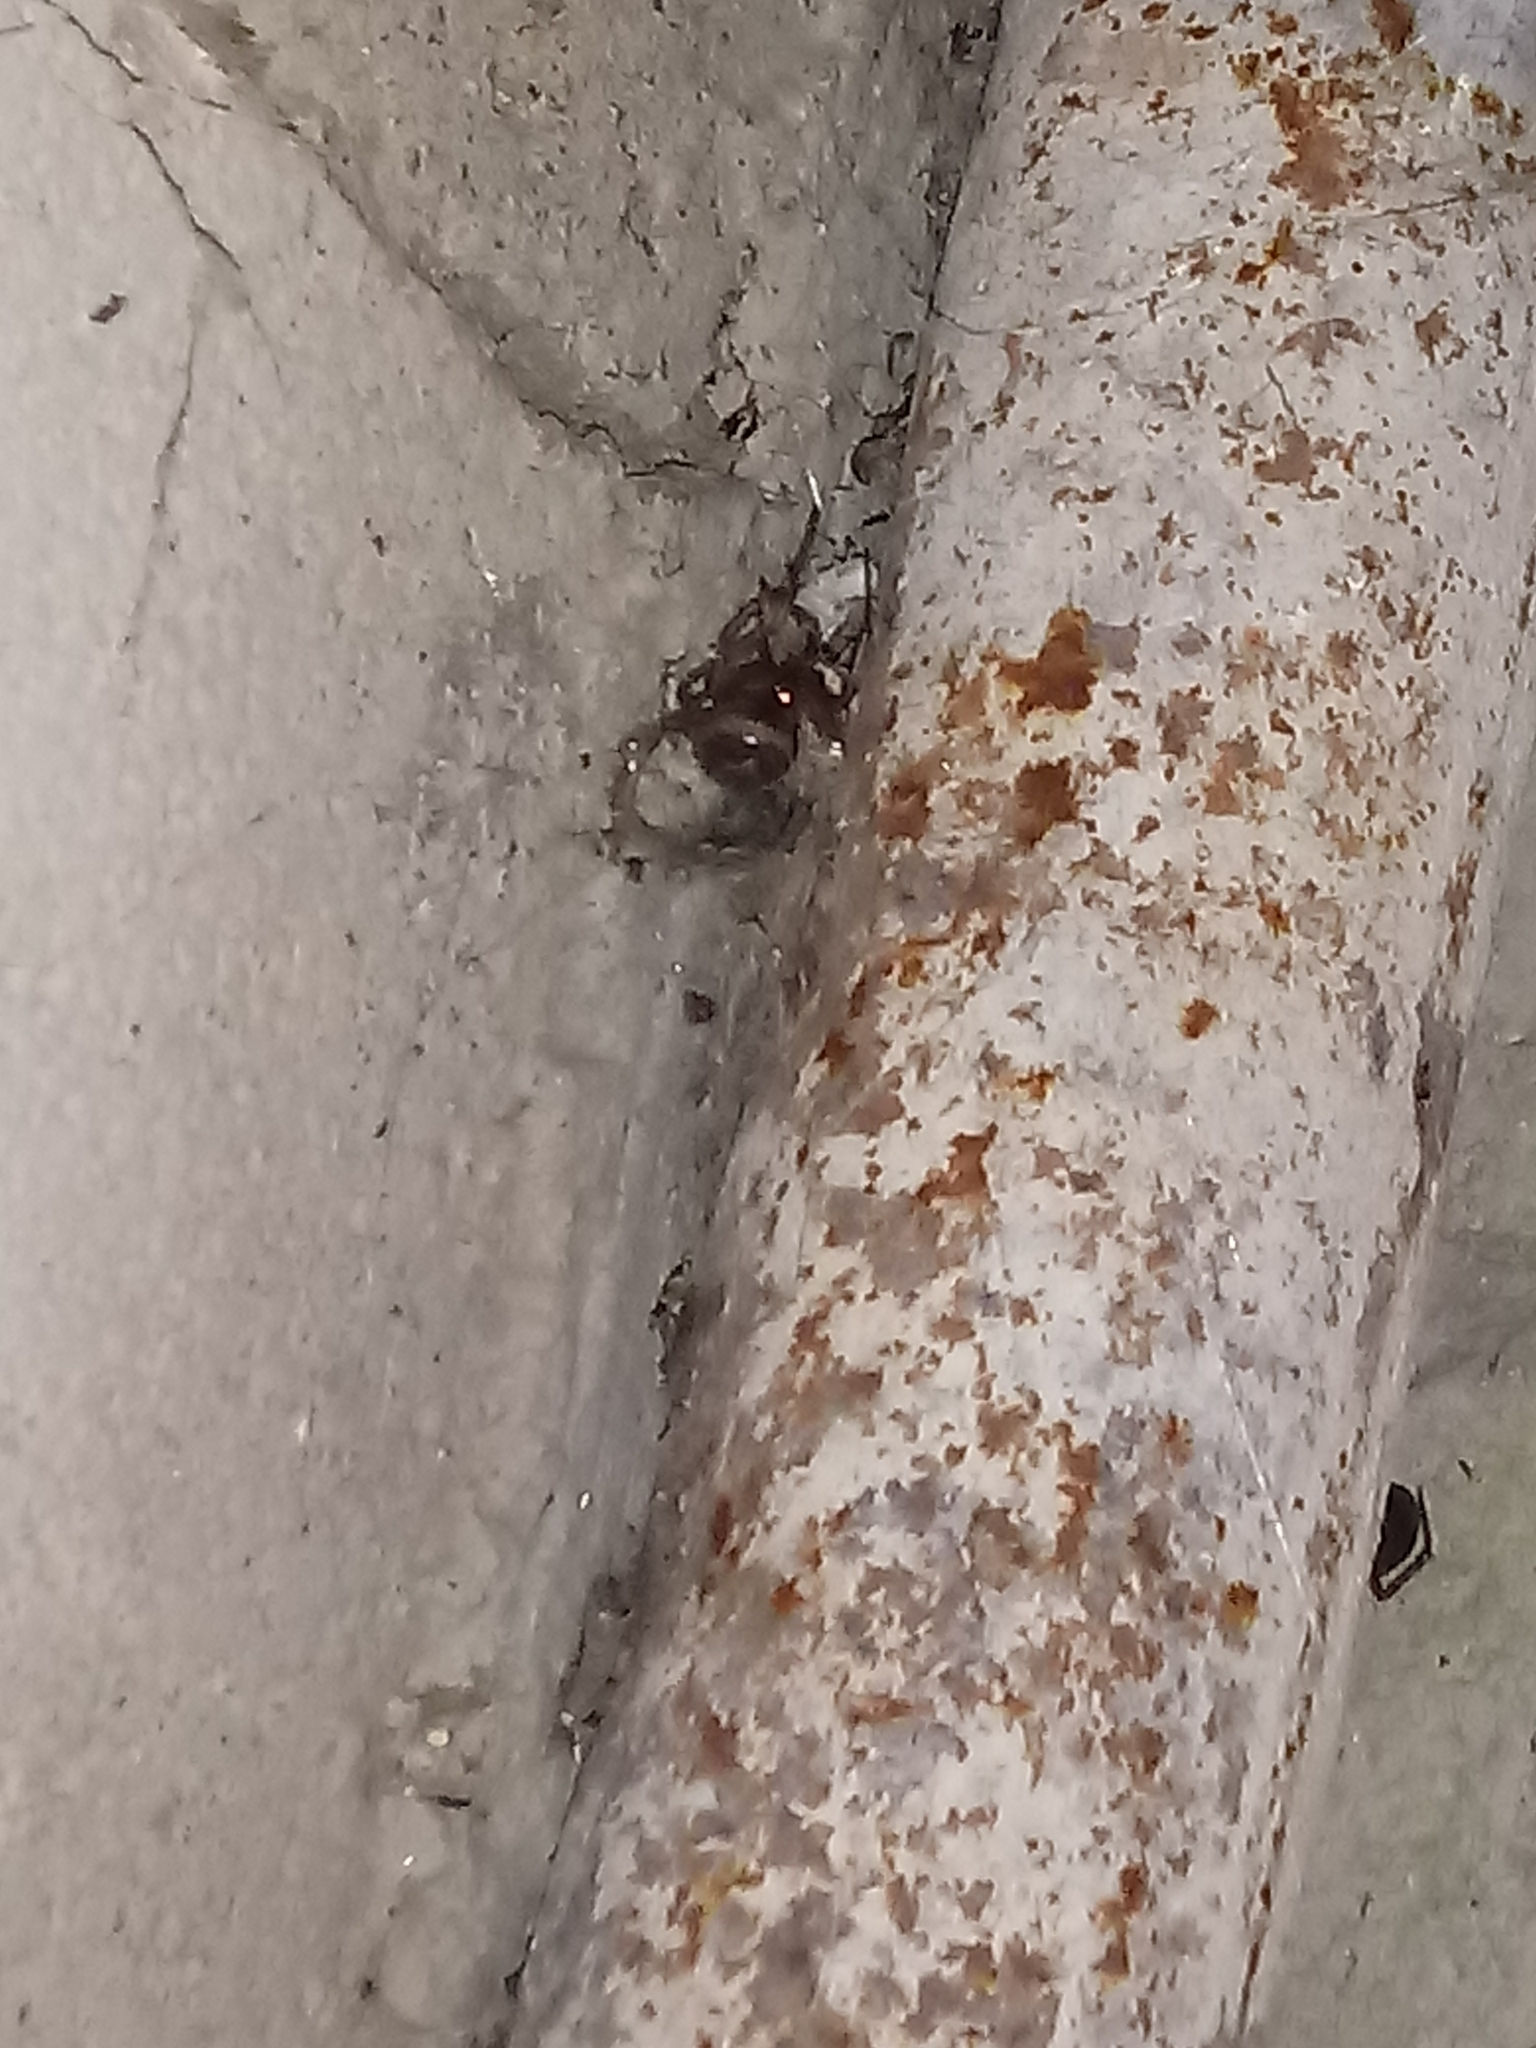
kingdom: Animalia
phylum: Arthropoda
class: Arachnida
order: Araneae
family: Theridiidae
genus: Steatoda
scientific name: Steatoda nobilis
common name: Cobweb weaver
